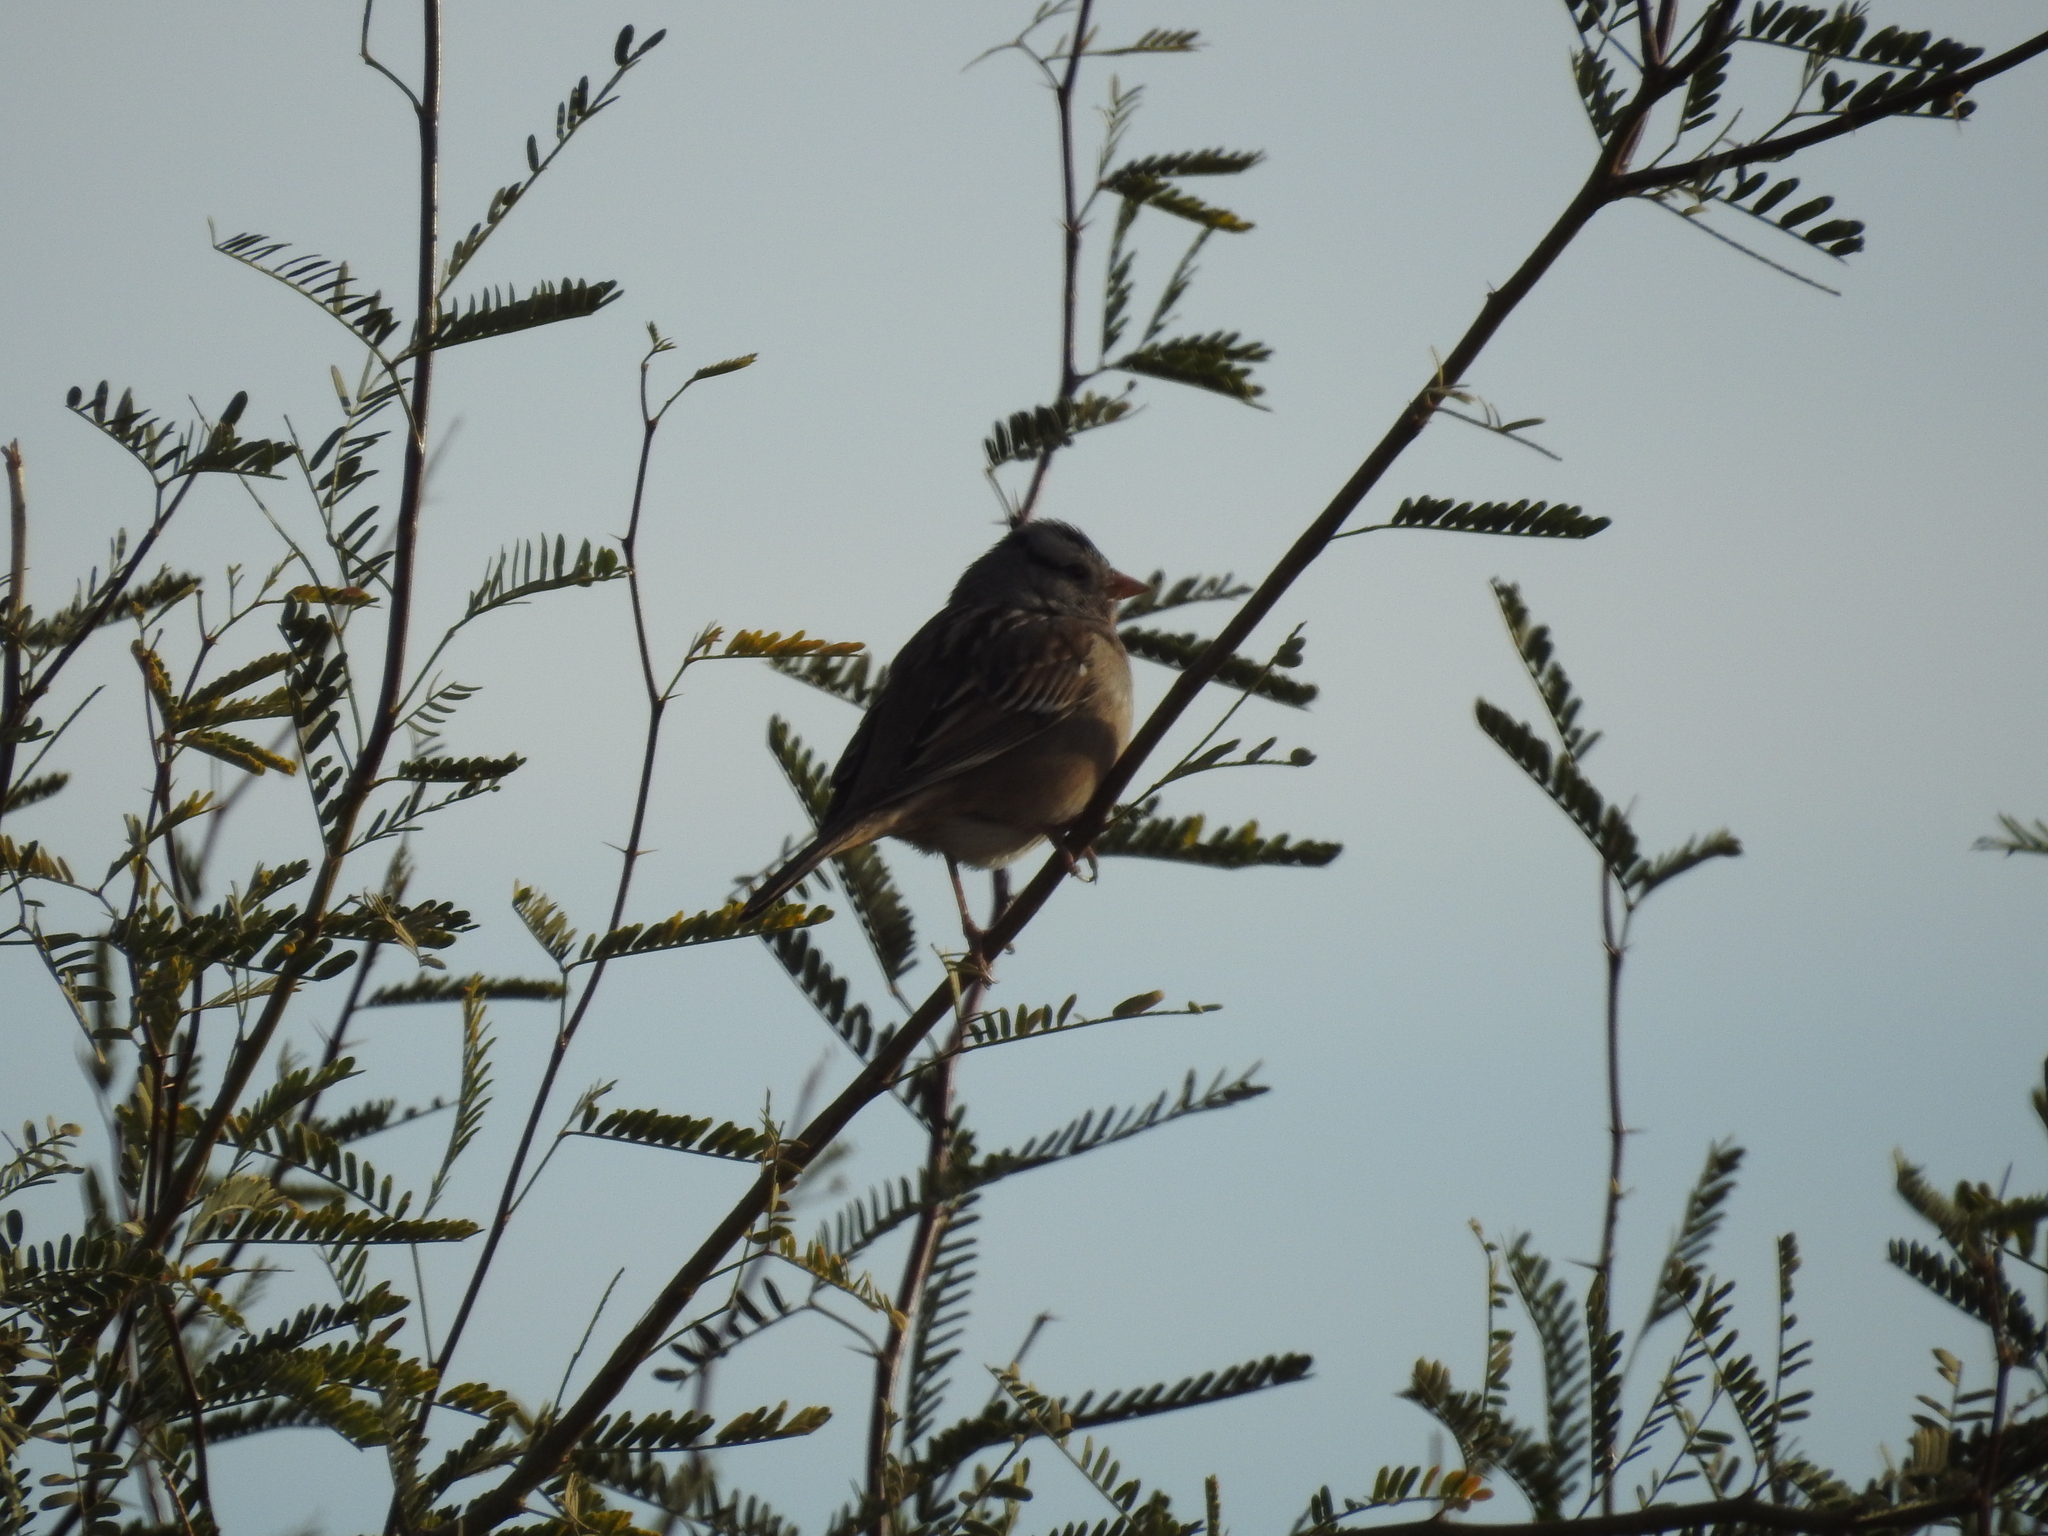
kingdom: Animalia
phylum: Chordata
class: Aves
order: Passeriformes
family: Passerellidae
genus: Zonotrichia
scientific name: Zonotrichia leucophrys
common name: White-crowned sparrow
